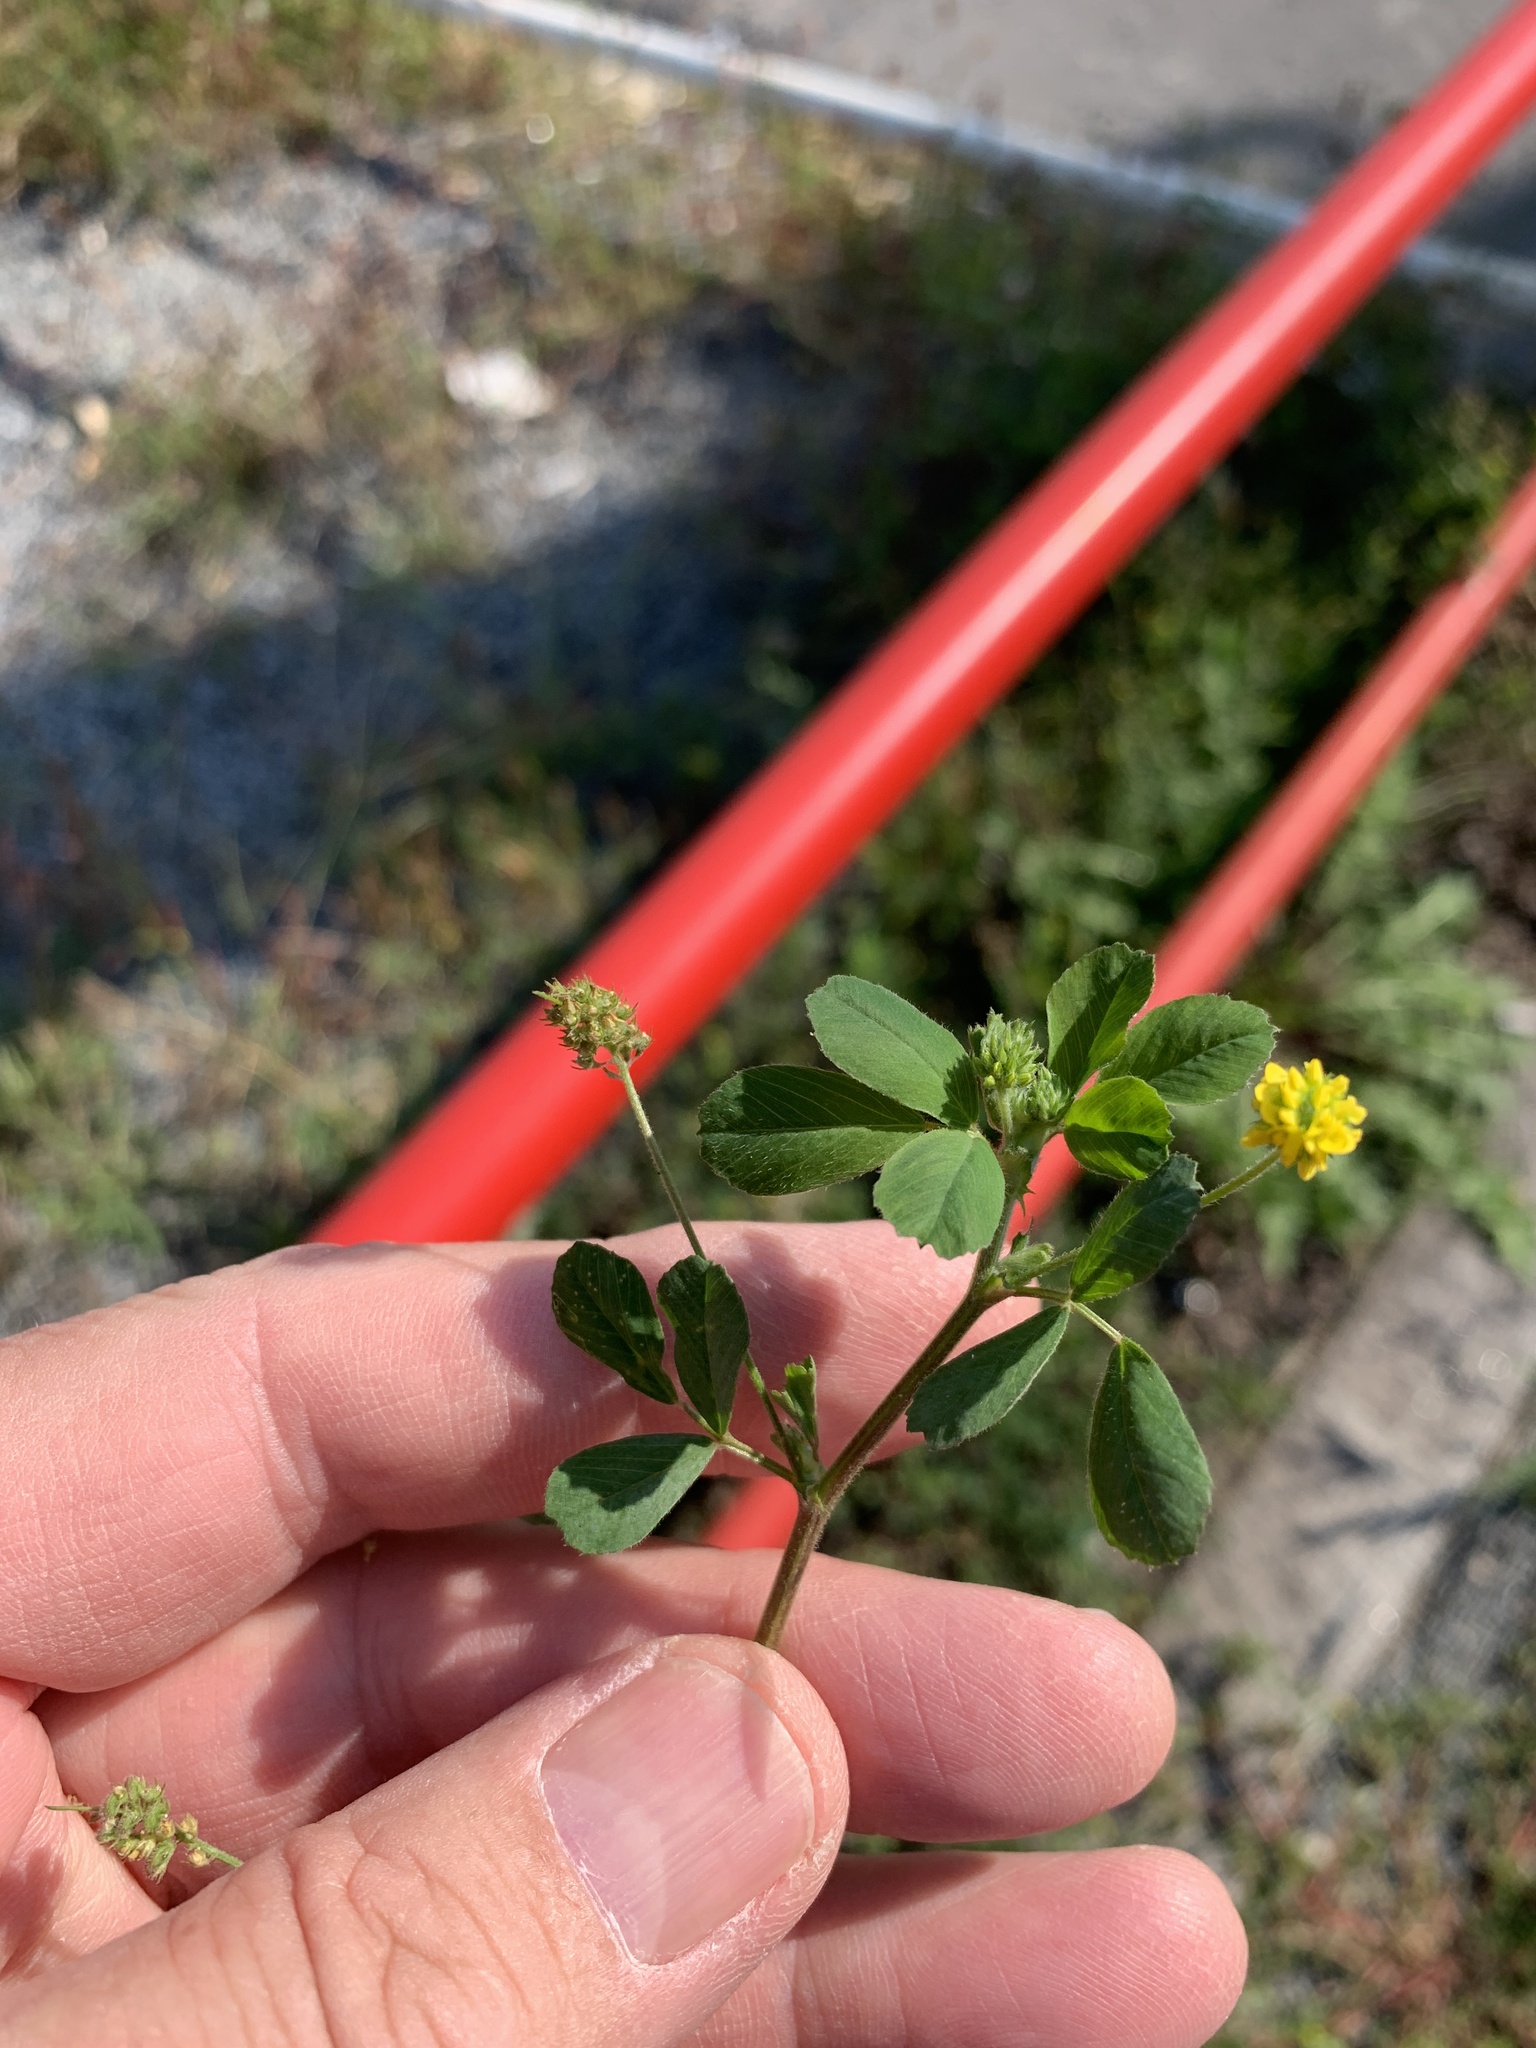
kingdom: Plantae
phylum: Tracheophyta
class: Magnoliopsida
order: Fabales
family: Fabaceae
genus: Medicago
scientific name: Medicago lupulina
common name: Black medick
